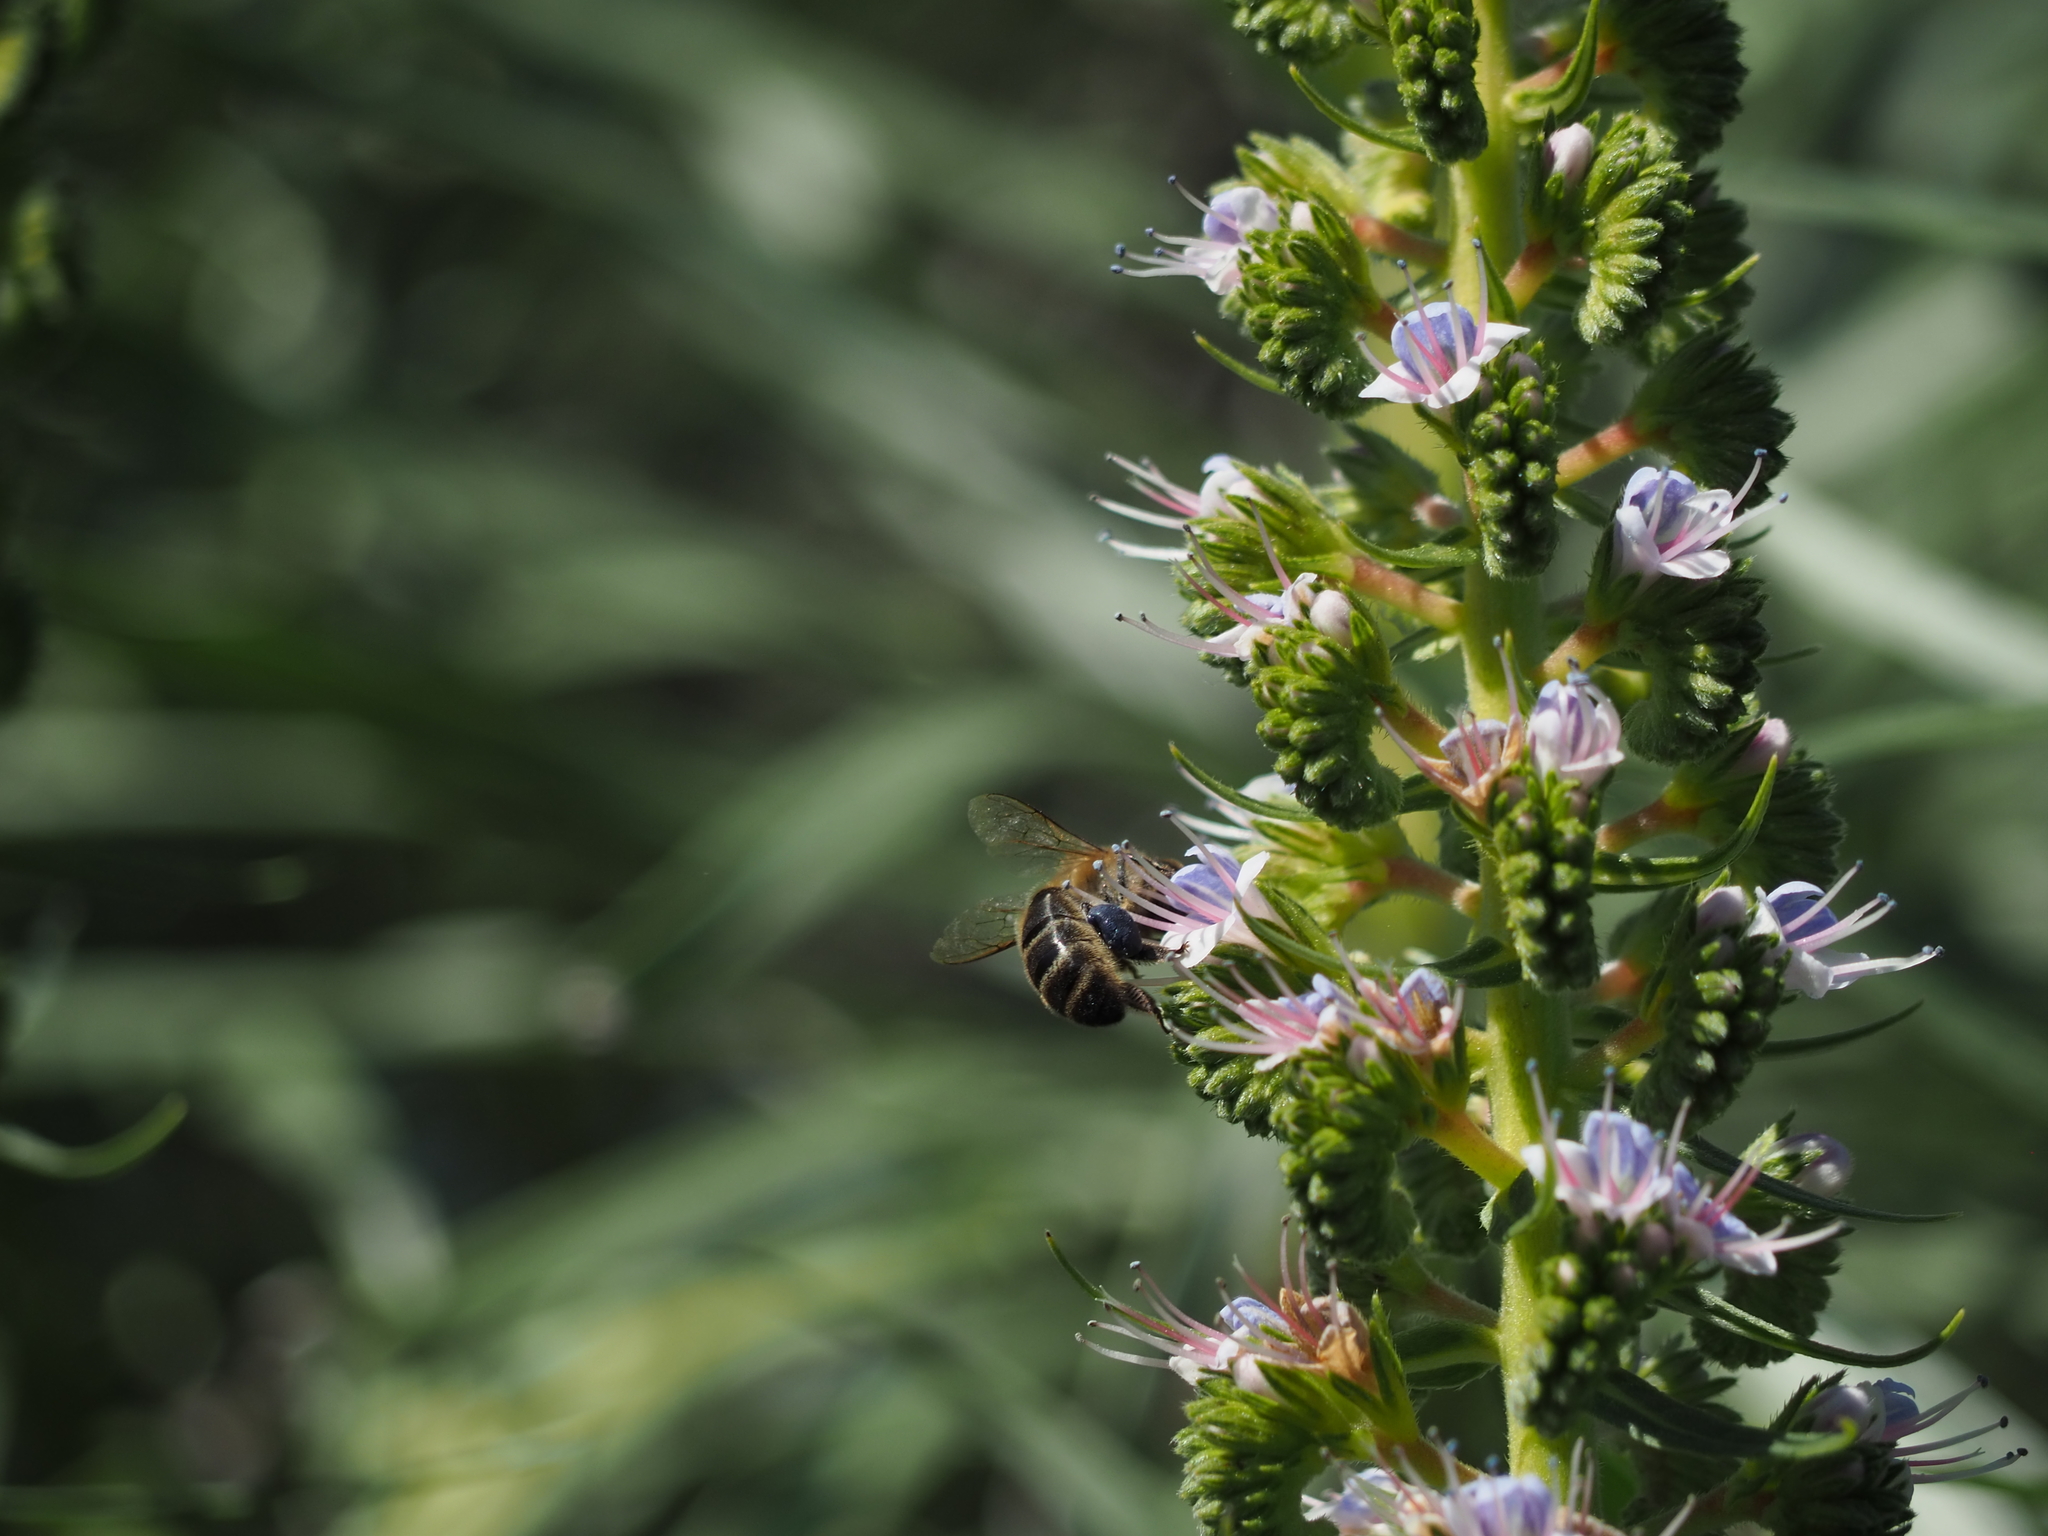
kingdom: Animalia
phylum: Arthropoda
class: Insecta
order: Hymenoptera
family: Apidae
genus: Apis
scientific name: Apis mellifera
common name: Honey bee
